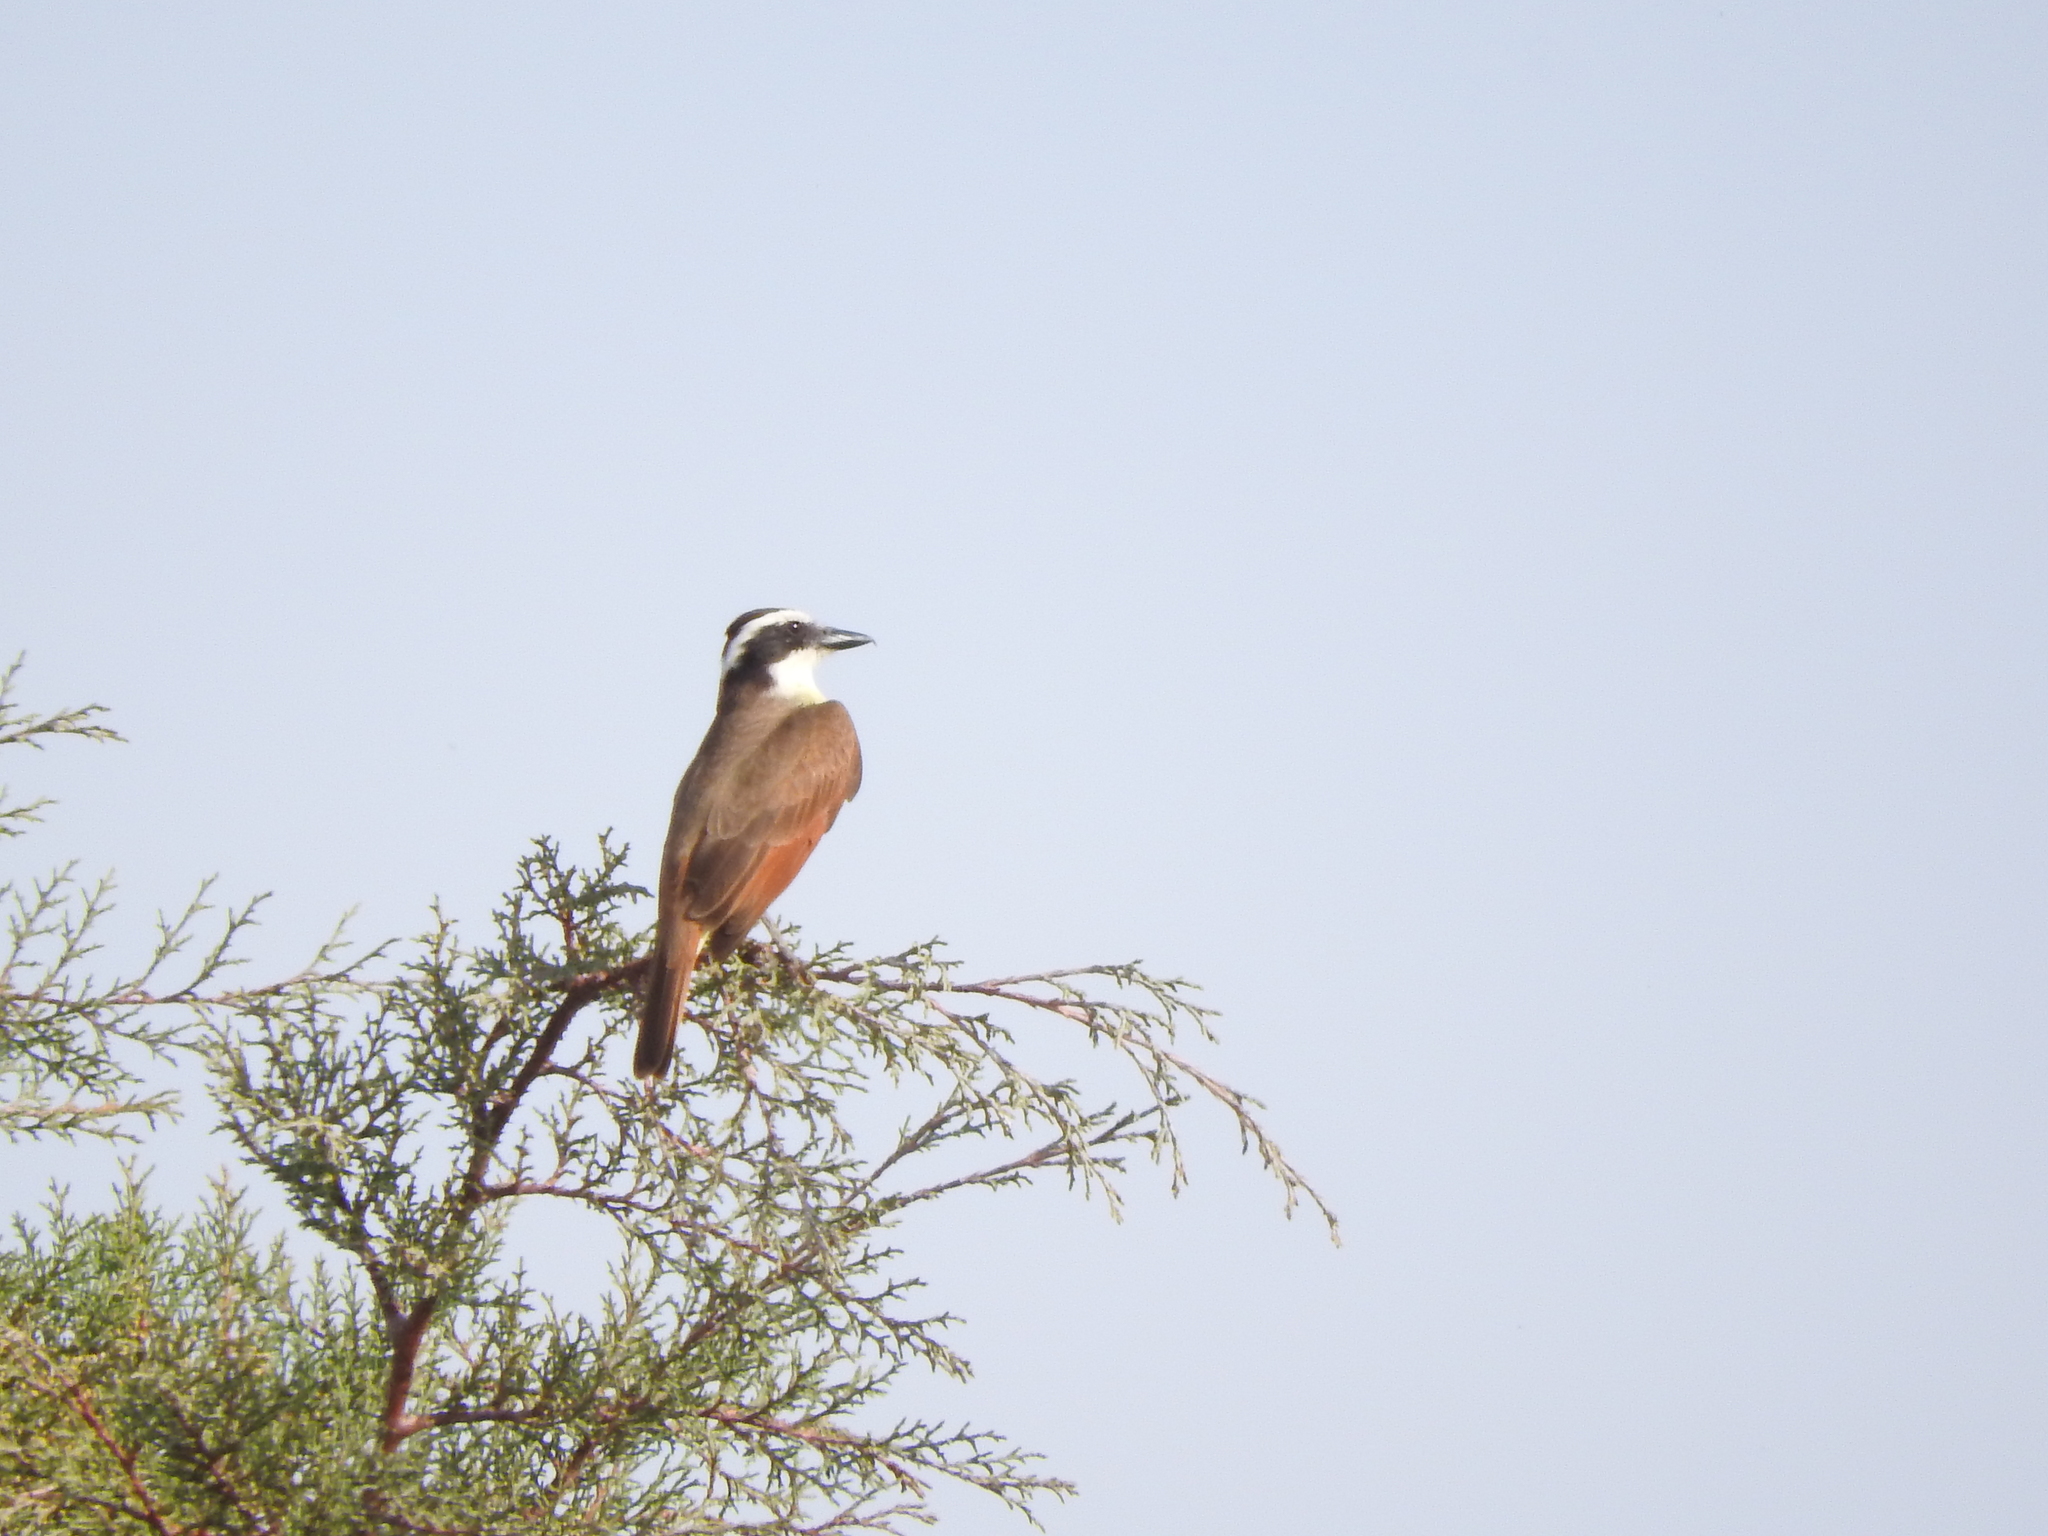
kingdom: Animalia
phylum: Chordata
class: Aves
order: Passeriformes
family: Tyrannidae
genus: Pitangus
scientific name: Pitangus sulphuratus
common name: Great kiskadee
